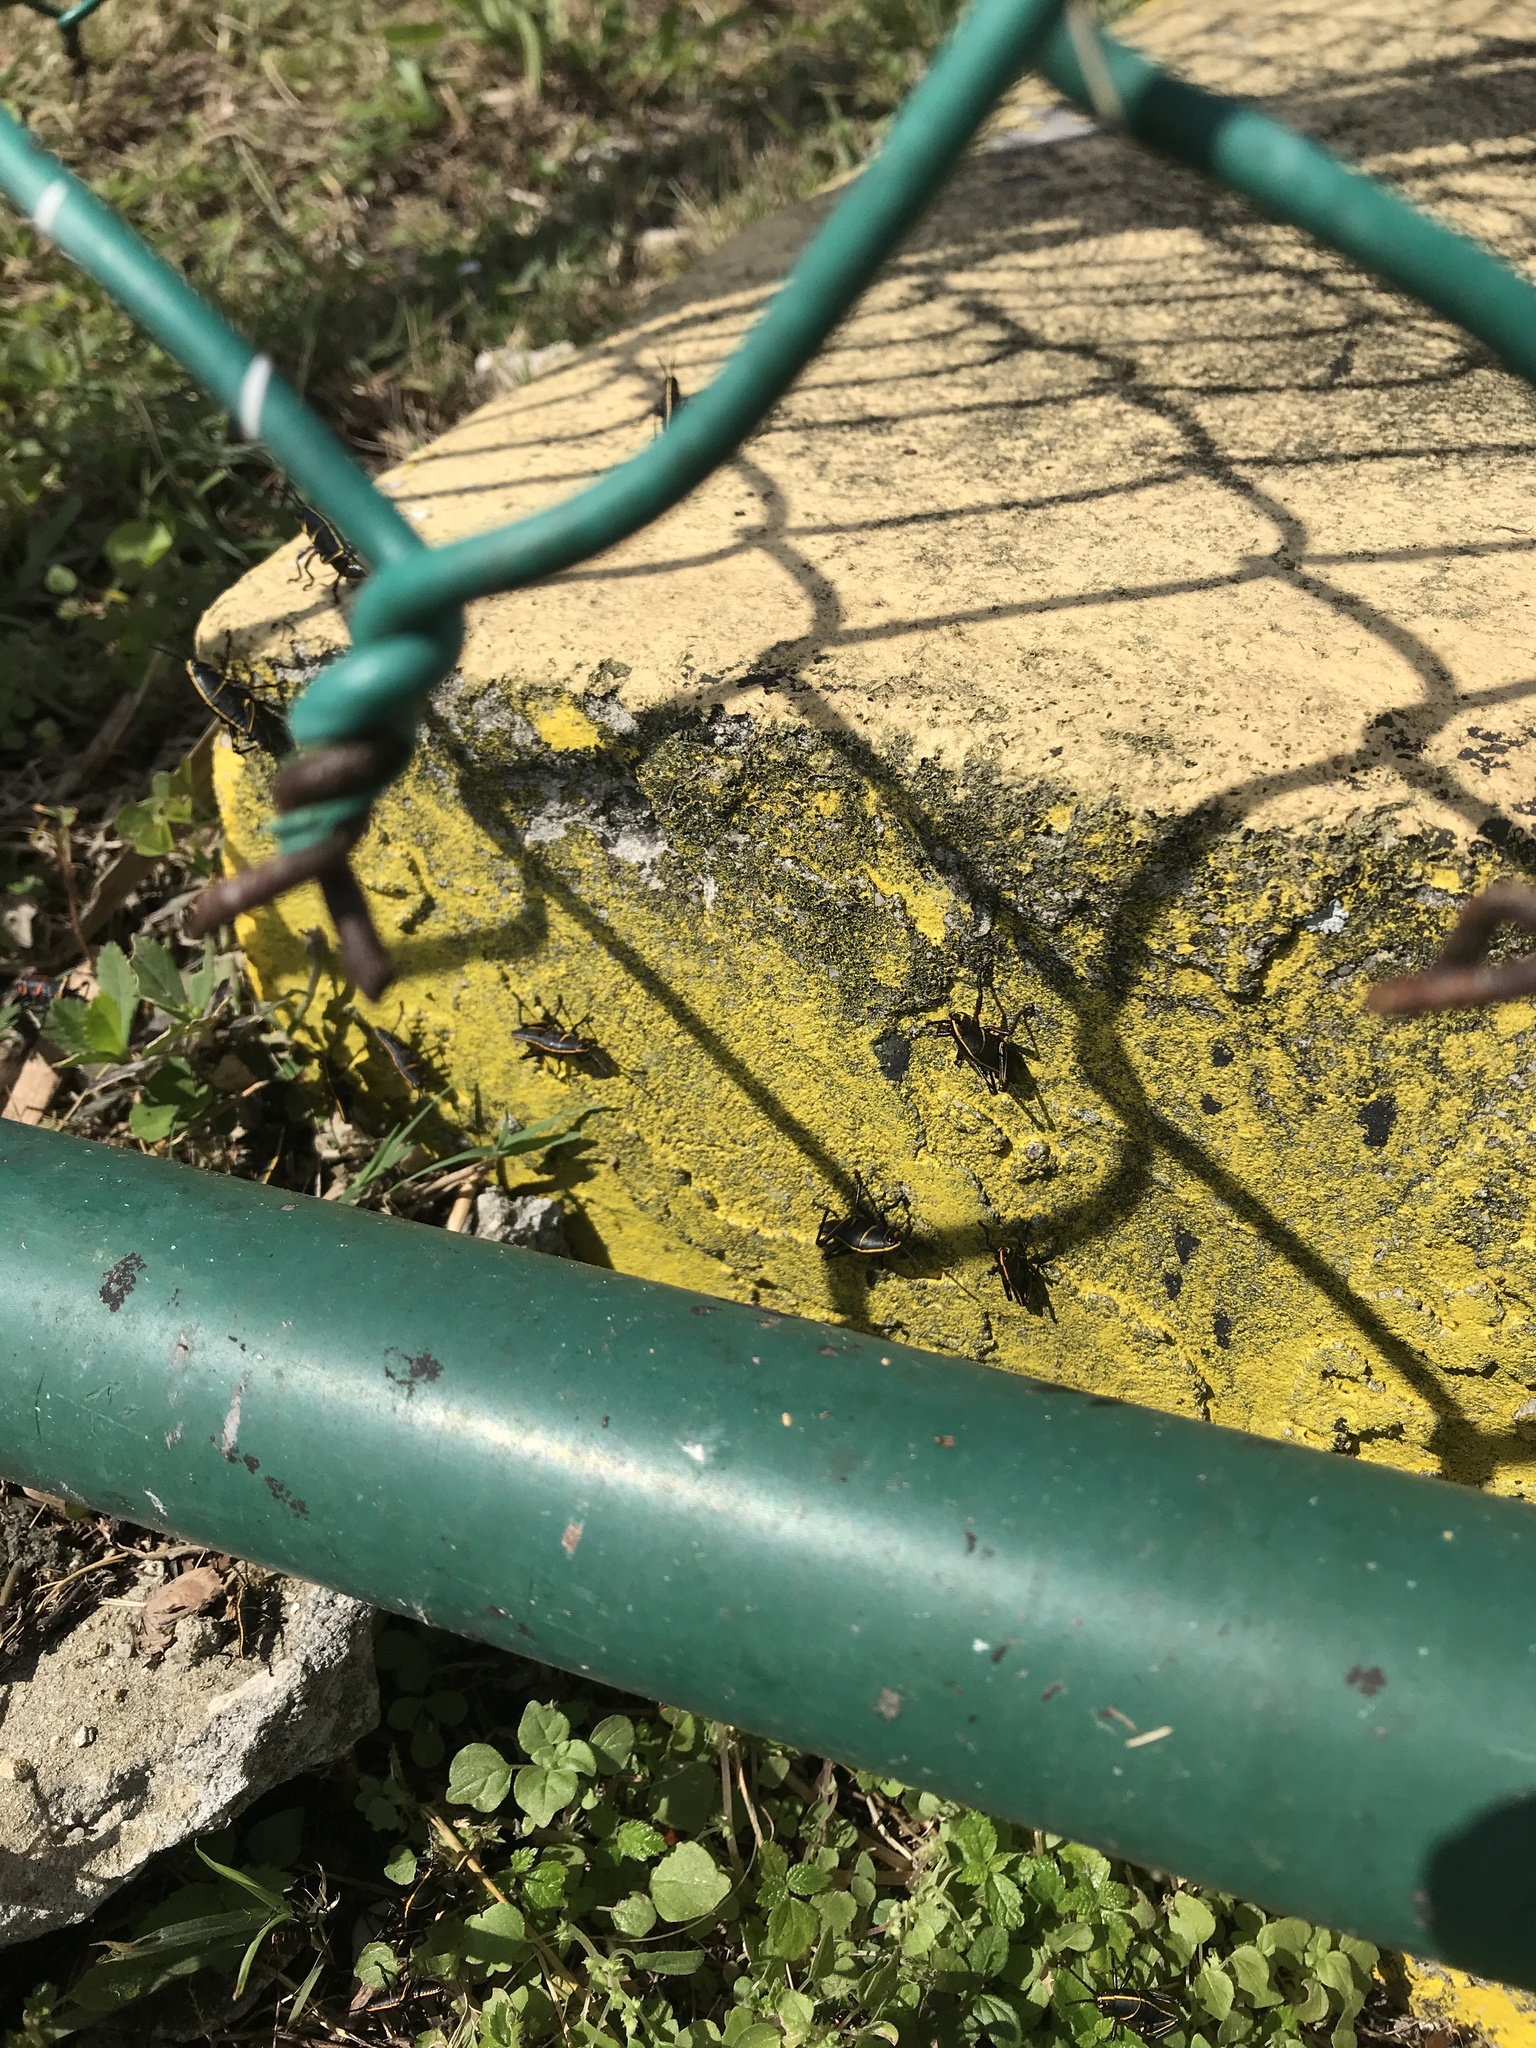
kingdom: Animalia
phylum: Arthropoda
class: Insecta
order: Orthoptera
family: Romaleidae
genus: Romalea
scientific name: Romalea microptera
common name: Eastern lubber grasshopper
